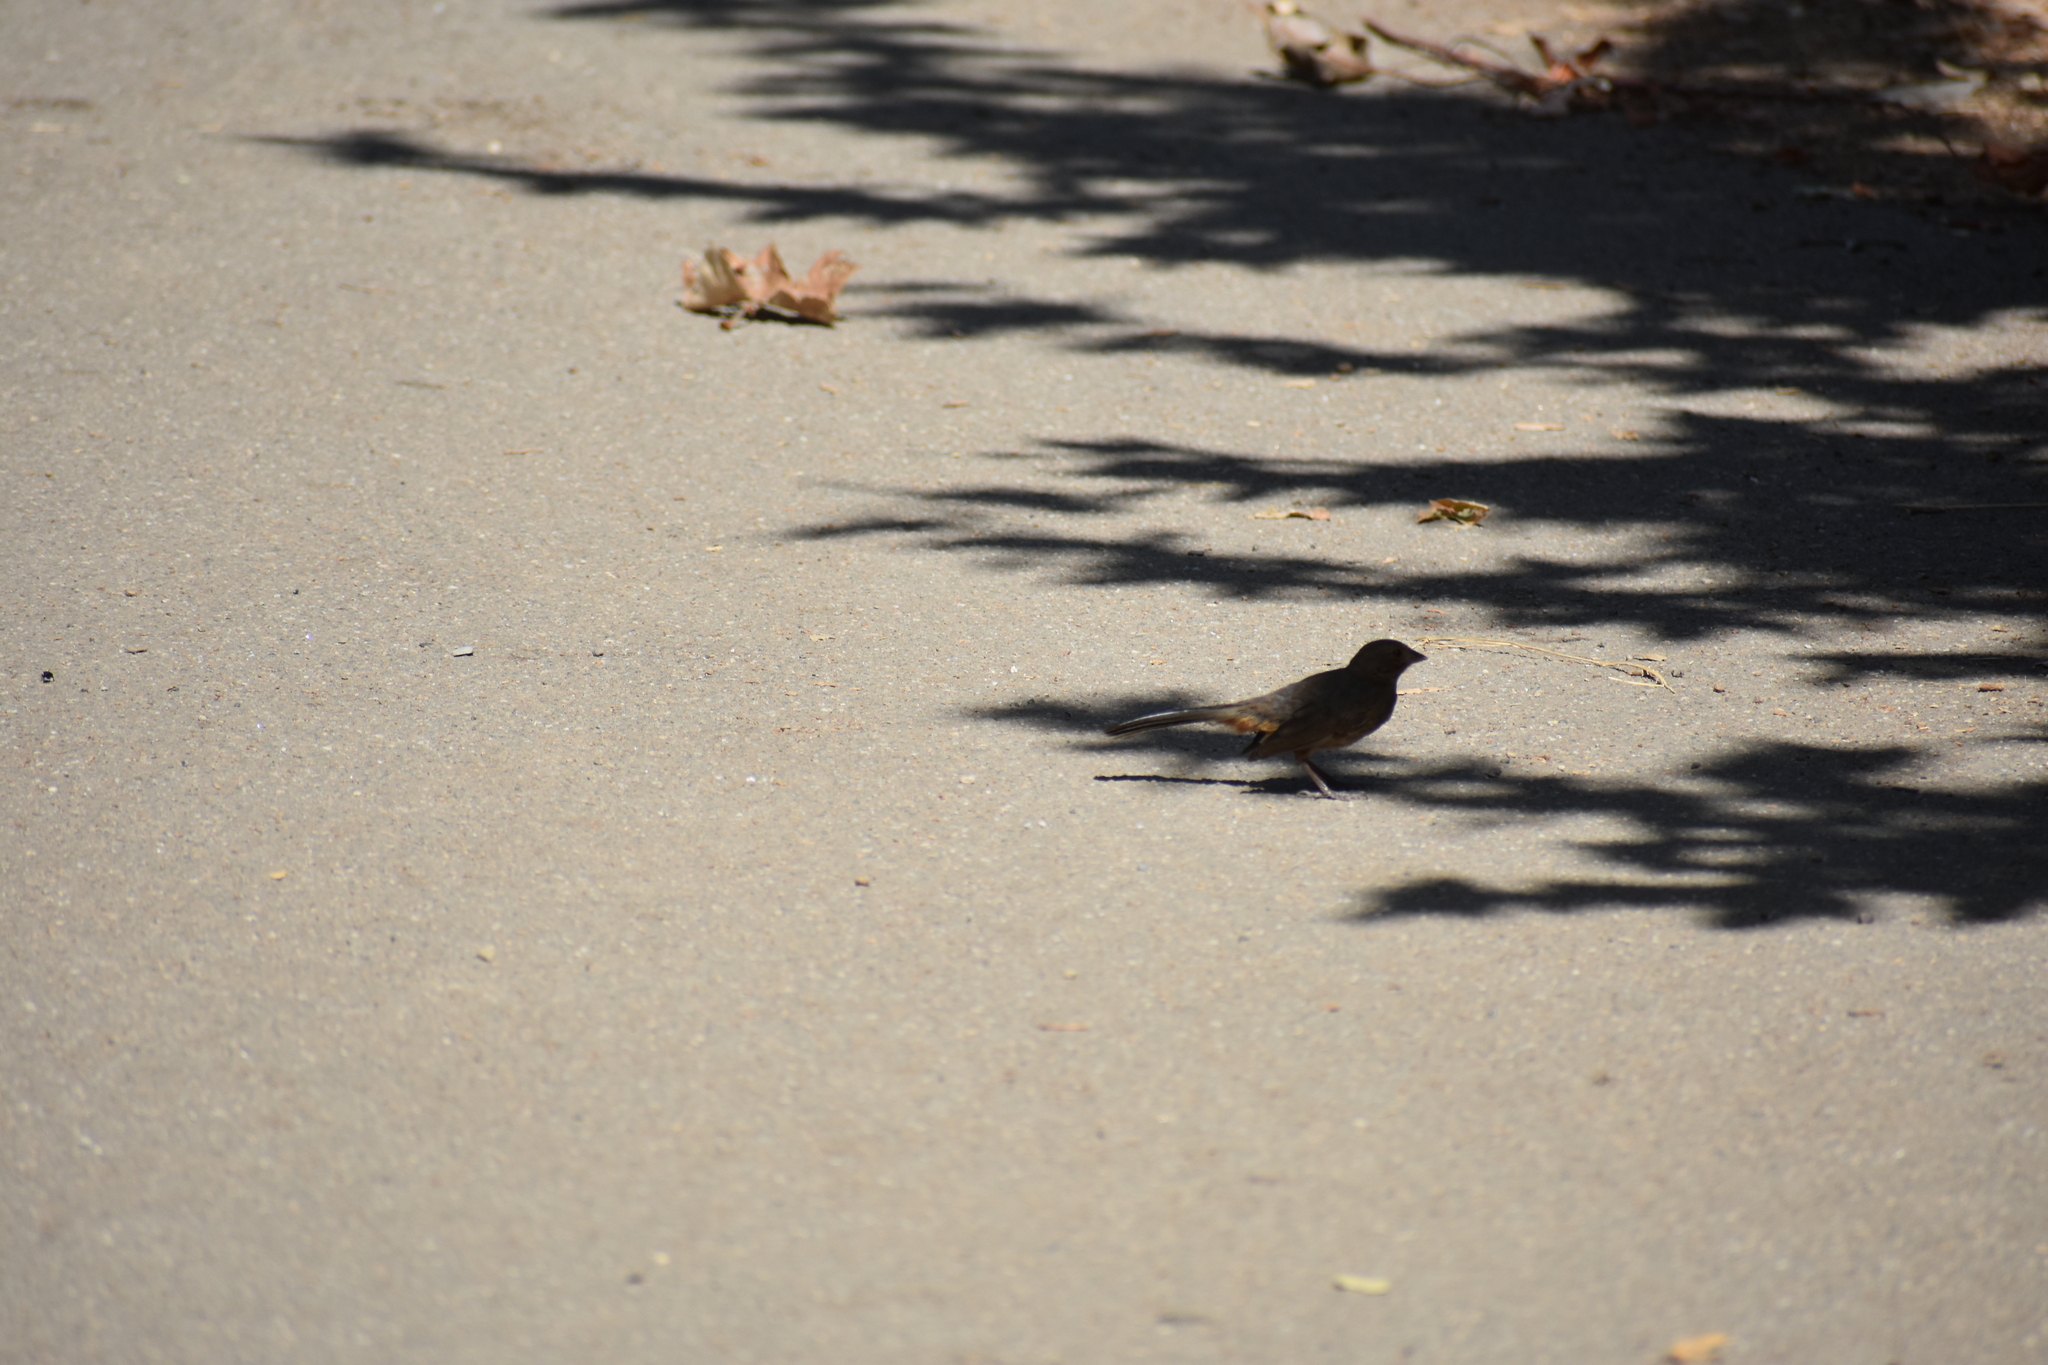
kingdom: Animalia
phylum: Chordata
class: Aves
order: Passeriformes
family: Passerellidae
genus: Melozone
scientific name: Melozone crissalis
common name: California towhee
